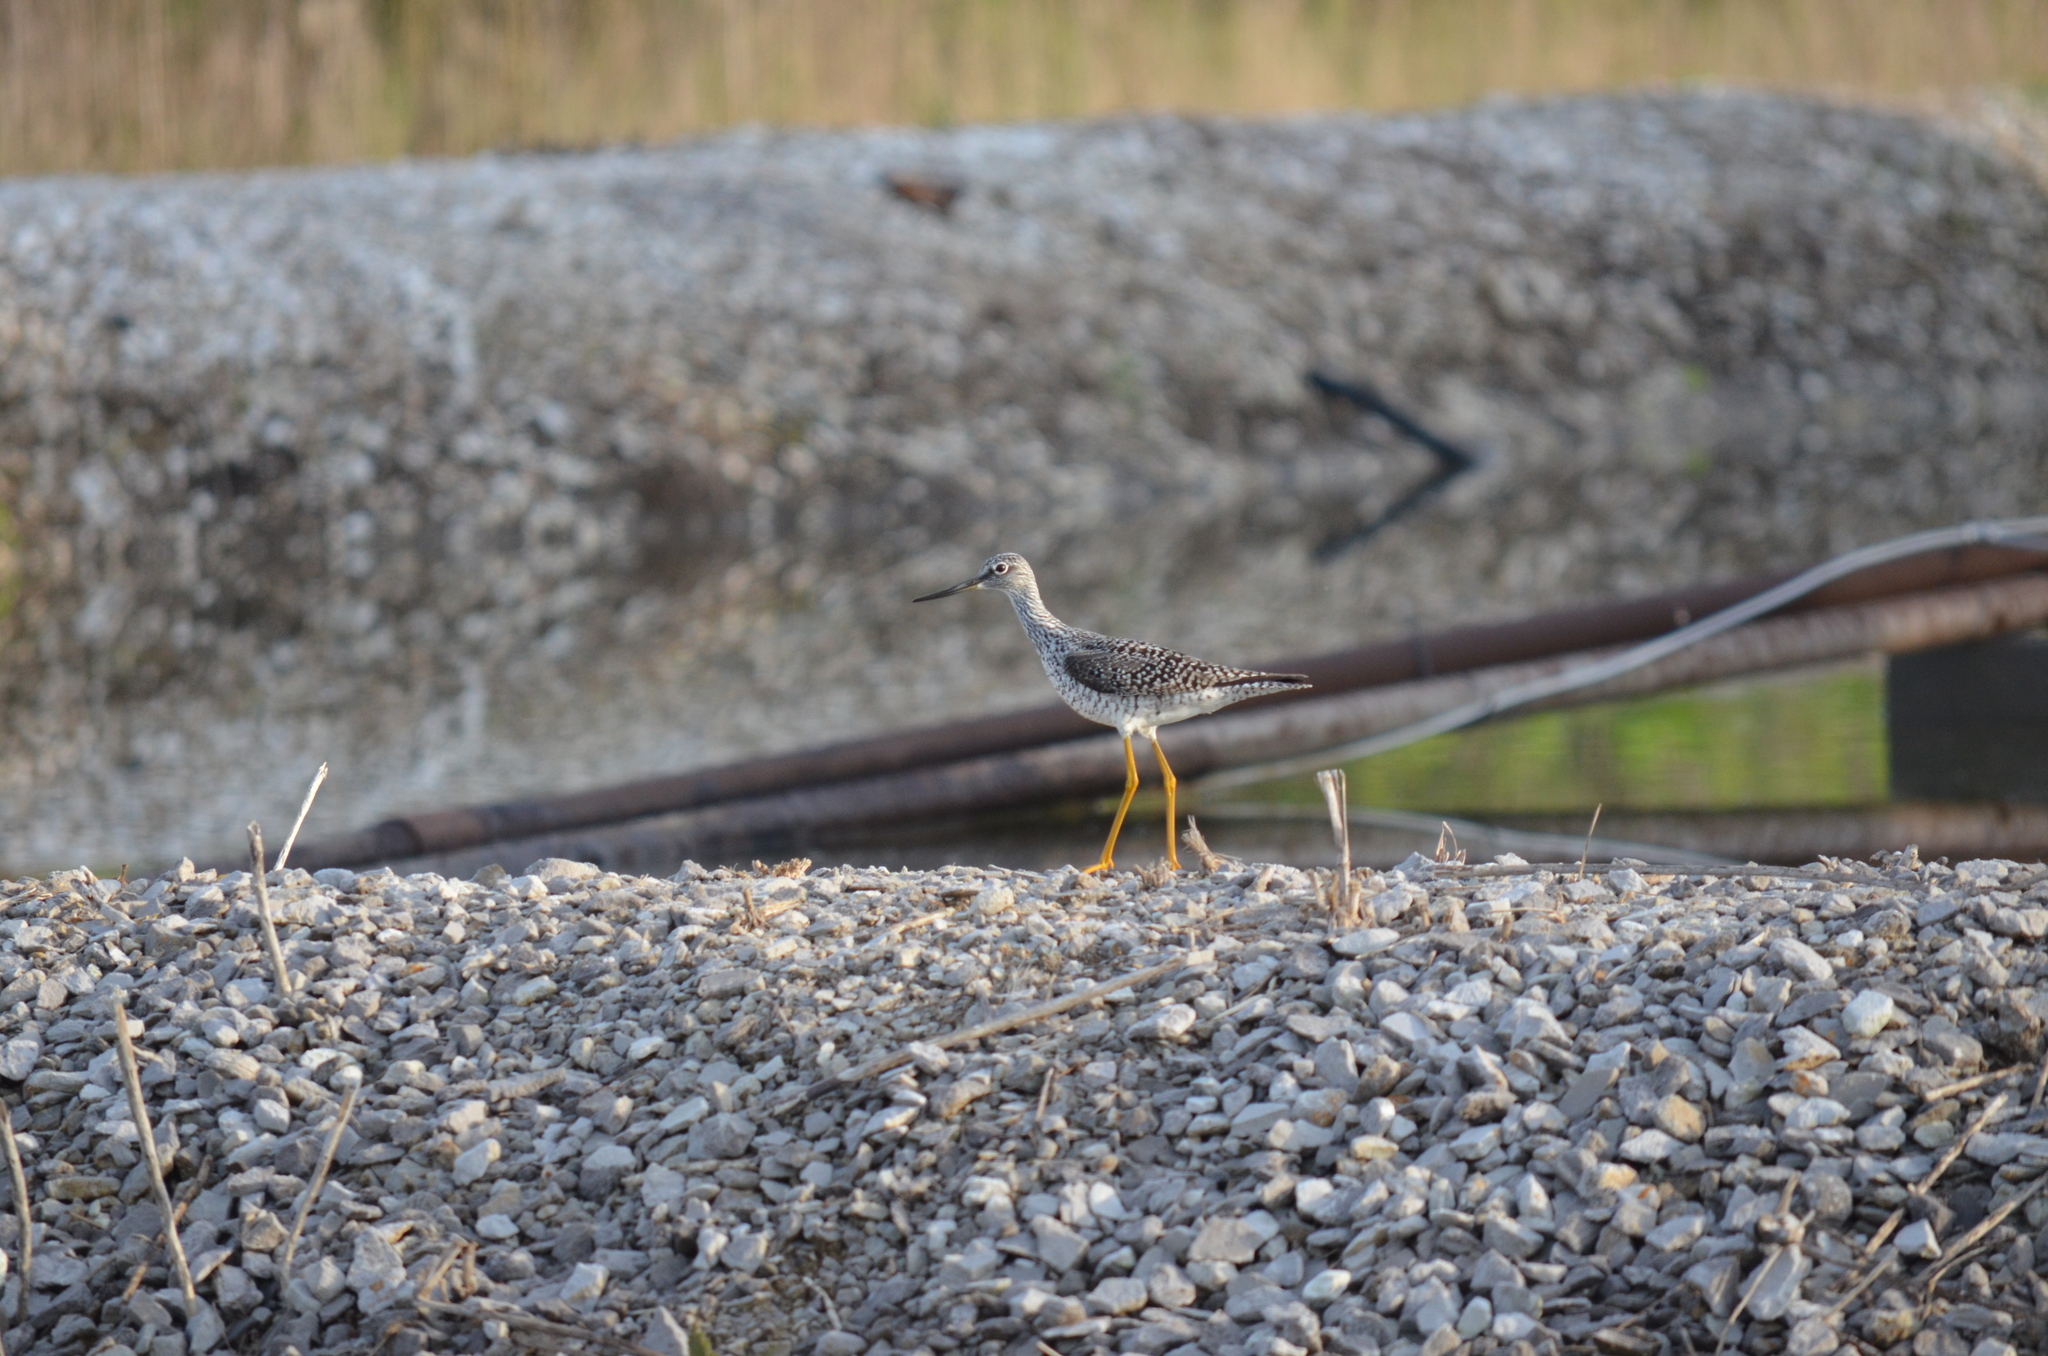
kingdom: Animalia
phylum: Chordata
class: Aves
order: Charadriiformes
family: Scolopacidae
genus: Tringa
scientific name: Tringa melanoleuca
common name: Greater yellowlegs
